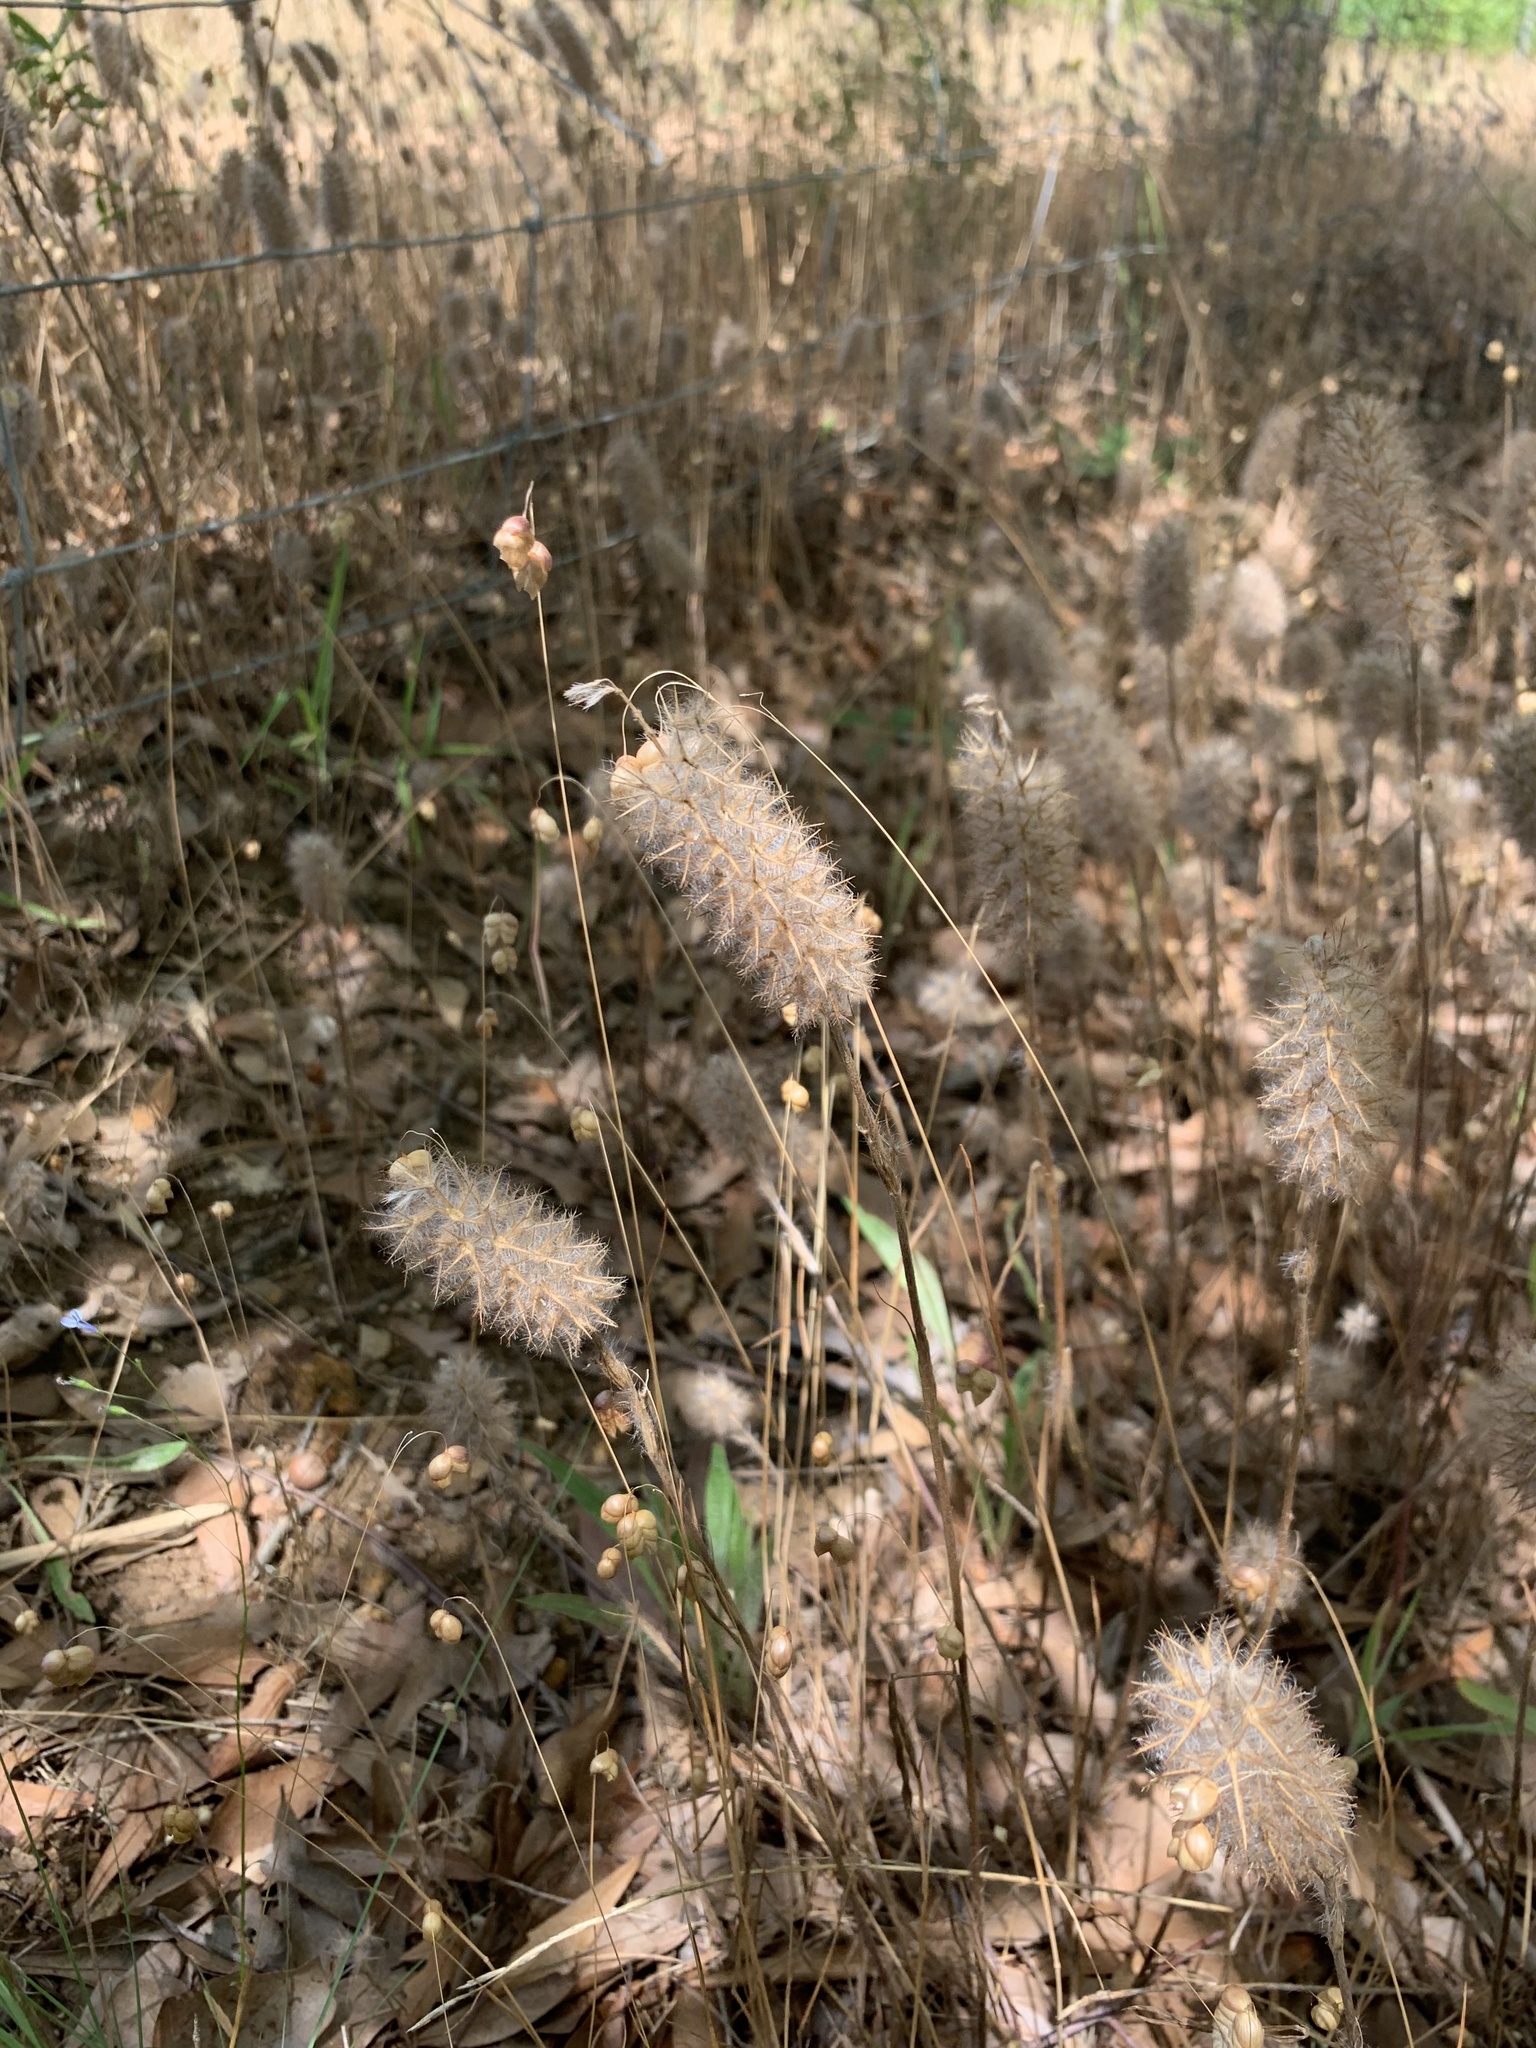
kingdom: Plantae
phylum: Tracheophyta
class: Magnoliopsida
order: Fabales
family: Fabaceae
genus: Trifolium
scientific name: Trifolium angustifolium
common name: Narrow clover
